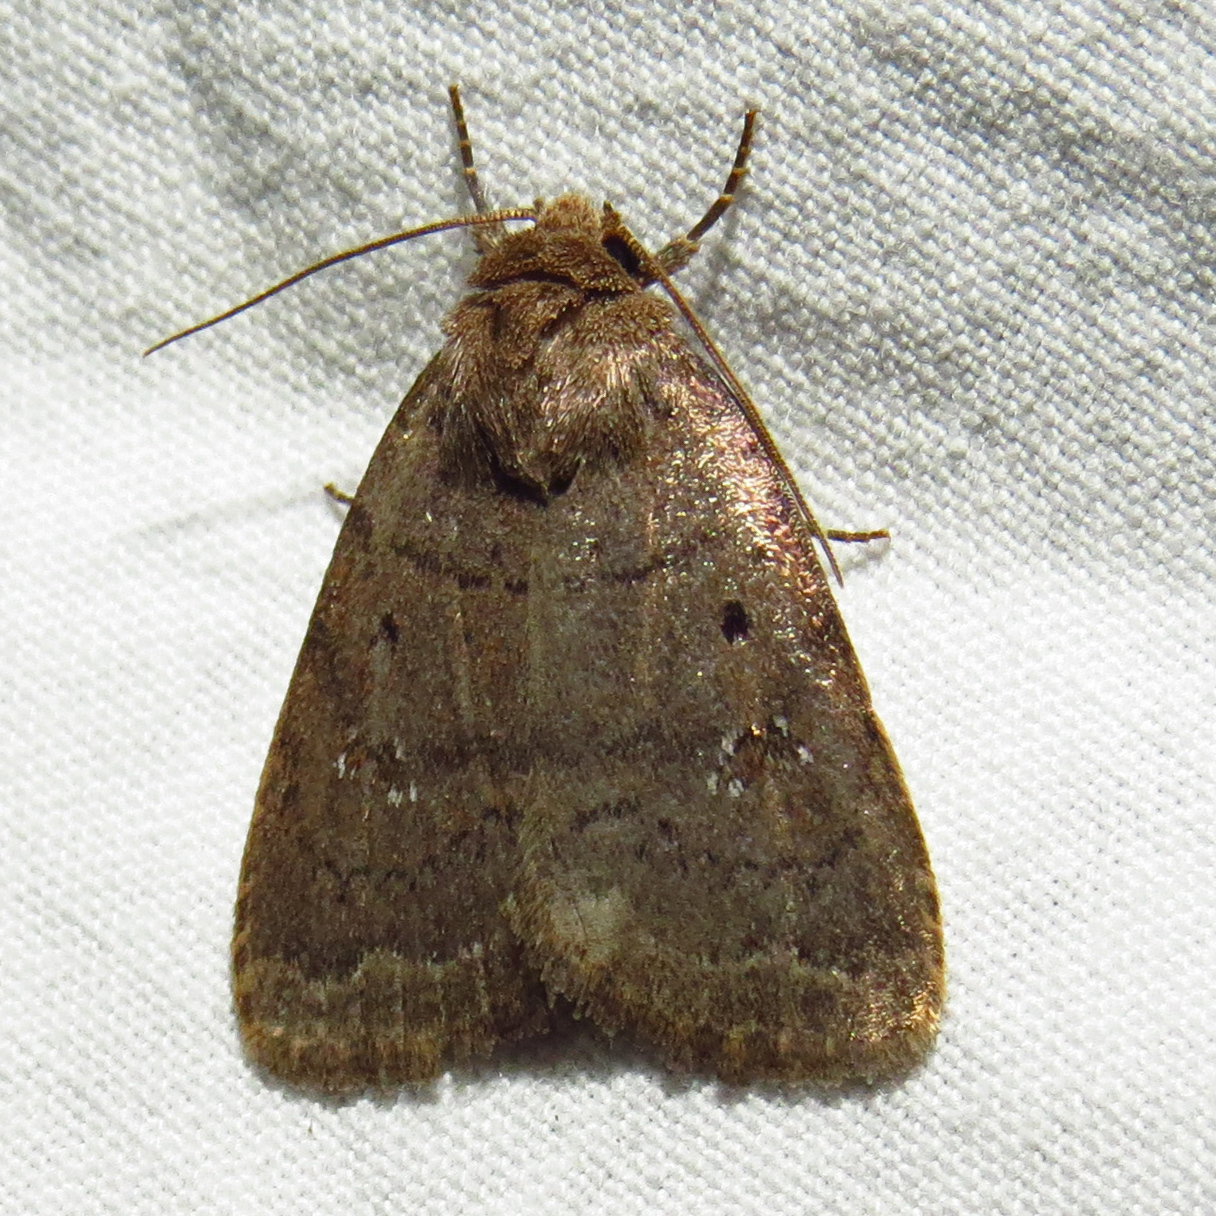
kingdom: Animalia
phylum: Arthropoda
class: Insecta
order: Lepidoptera
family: Noctuidae
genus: Athetis
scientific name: Athetis tarda
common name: Slowpoke moth
